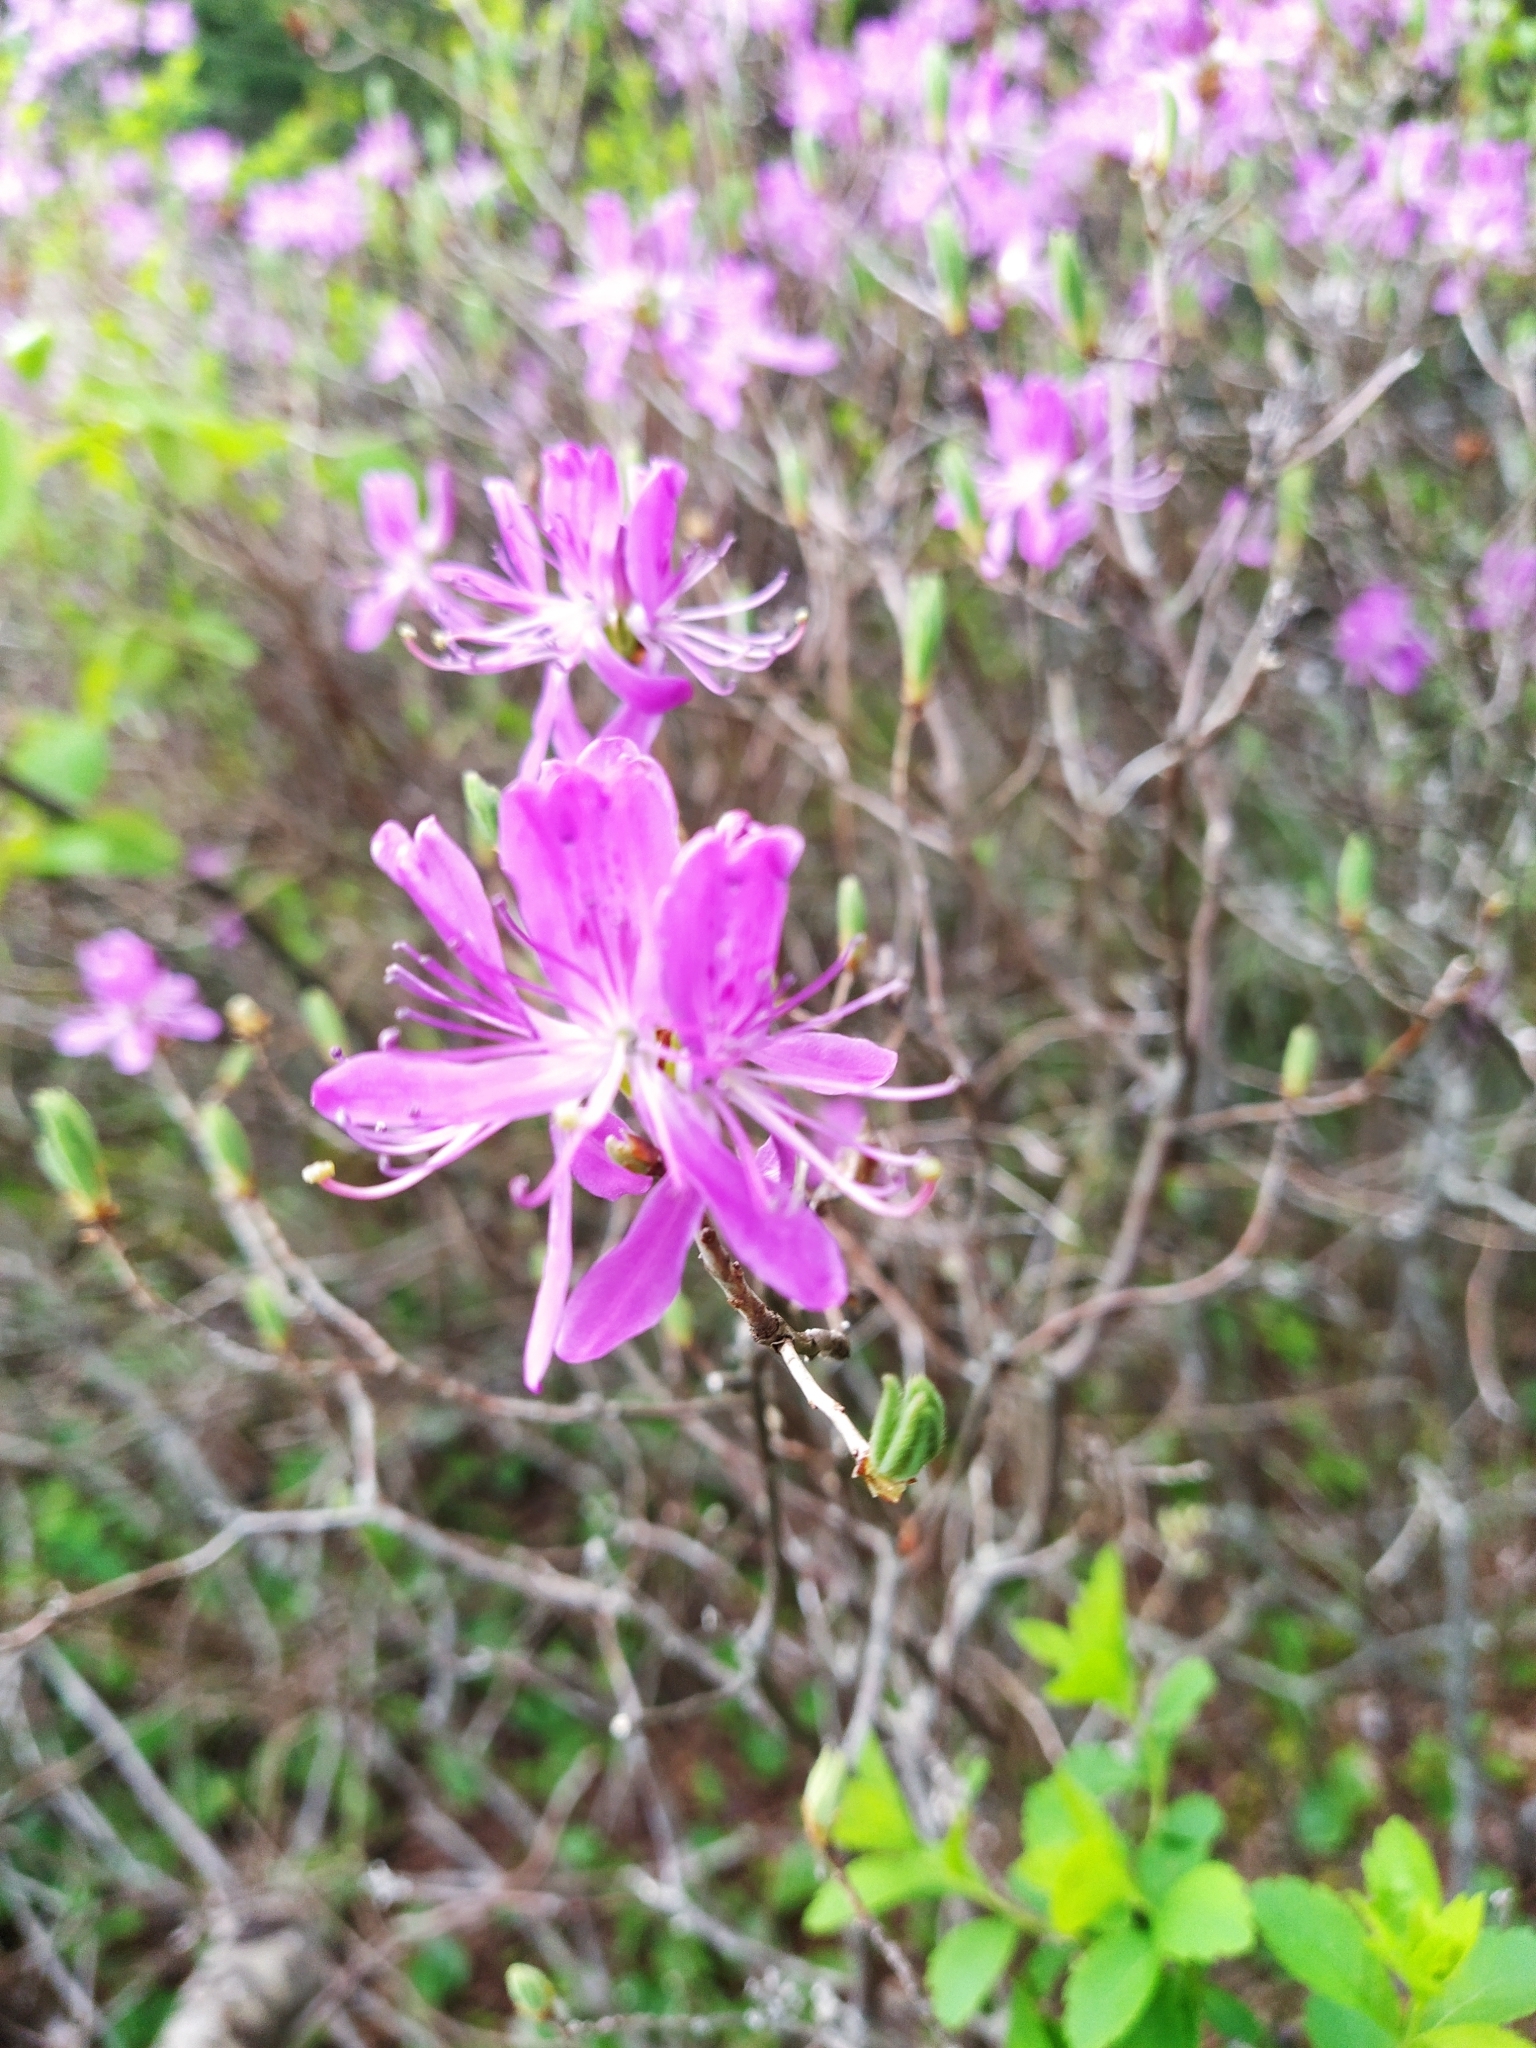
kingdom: Plantae
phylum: Tracheophyta
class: Magnoliopsida
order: Ericales
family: Ericaceae
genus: Rhododendron
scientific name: Rhododendron canadense
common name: Rhodora
